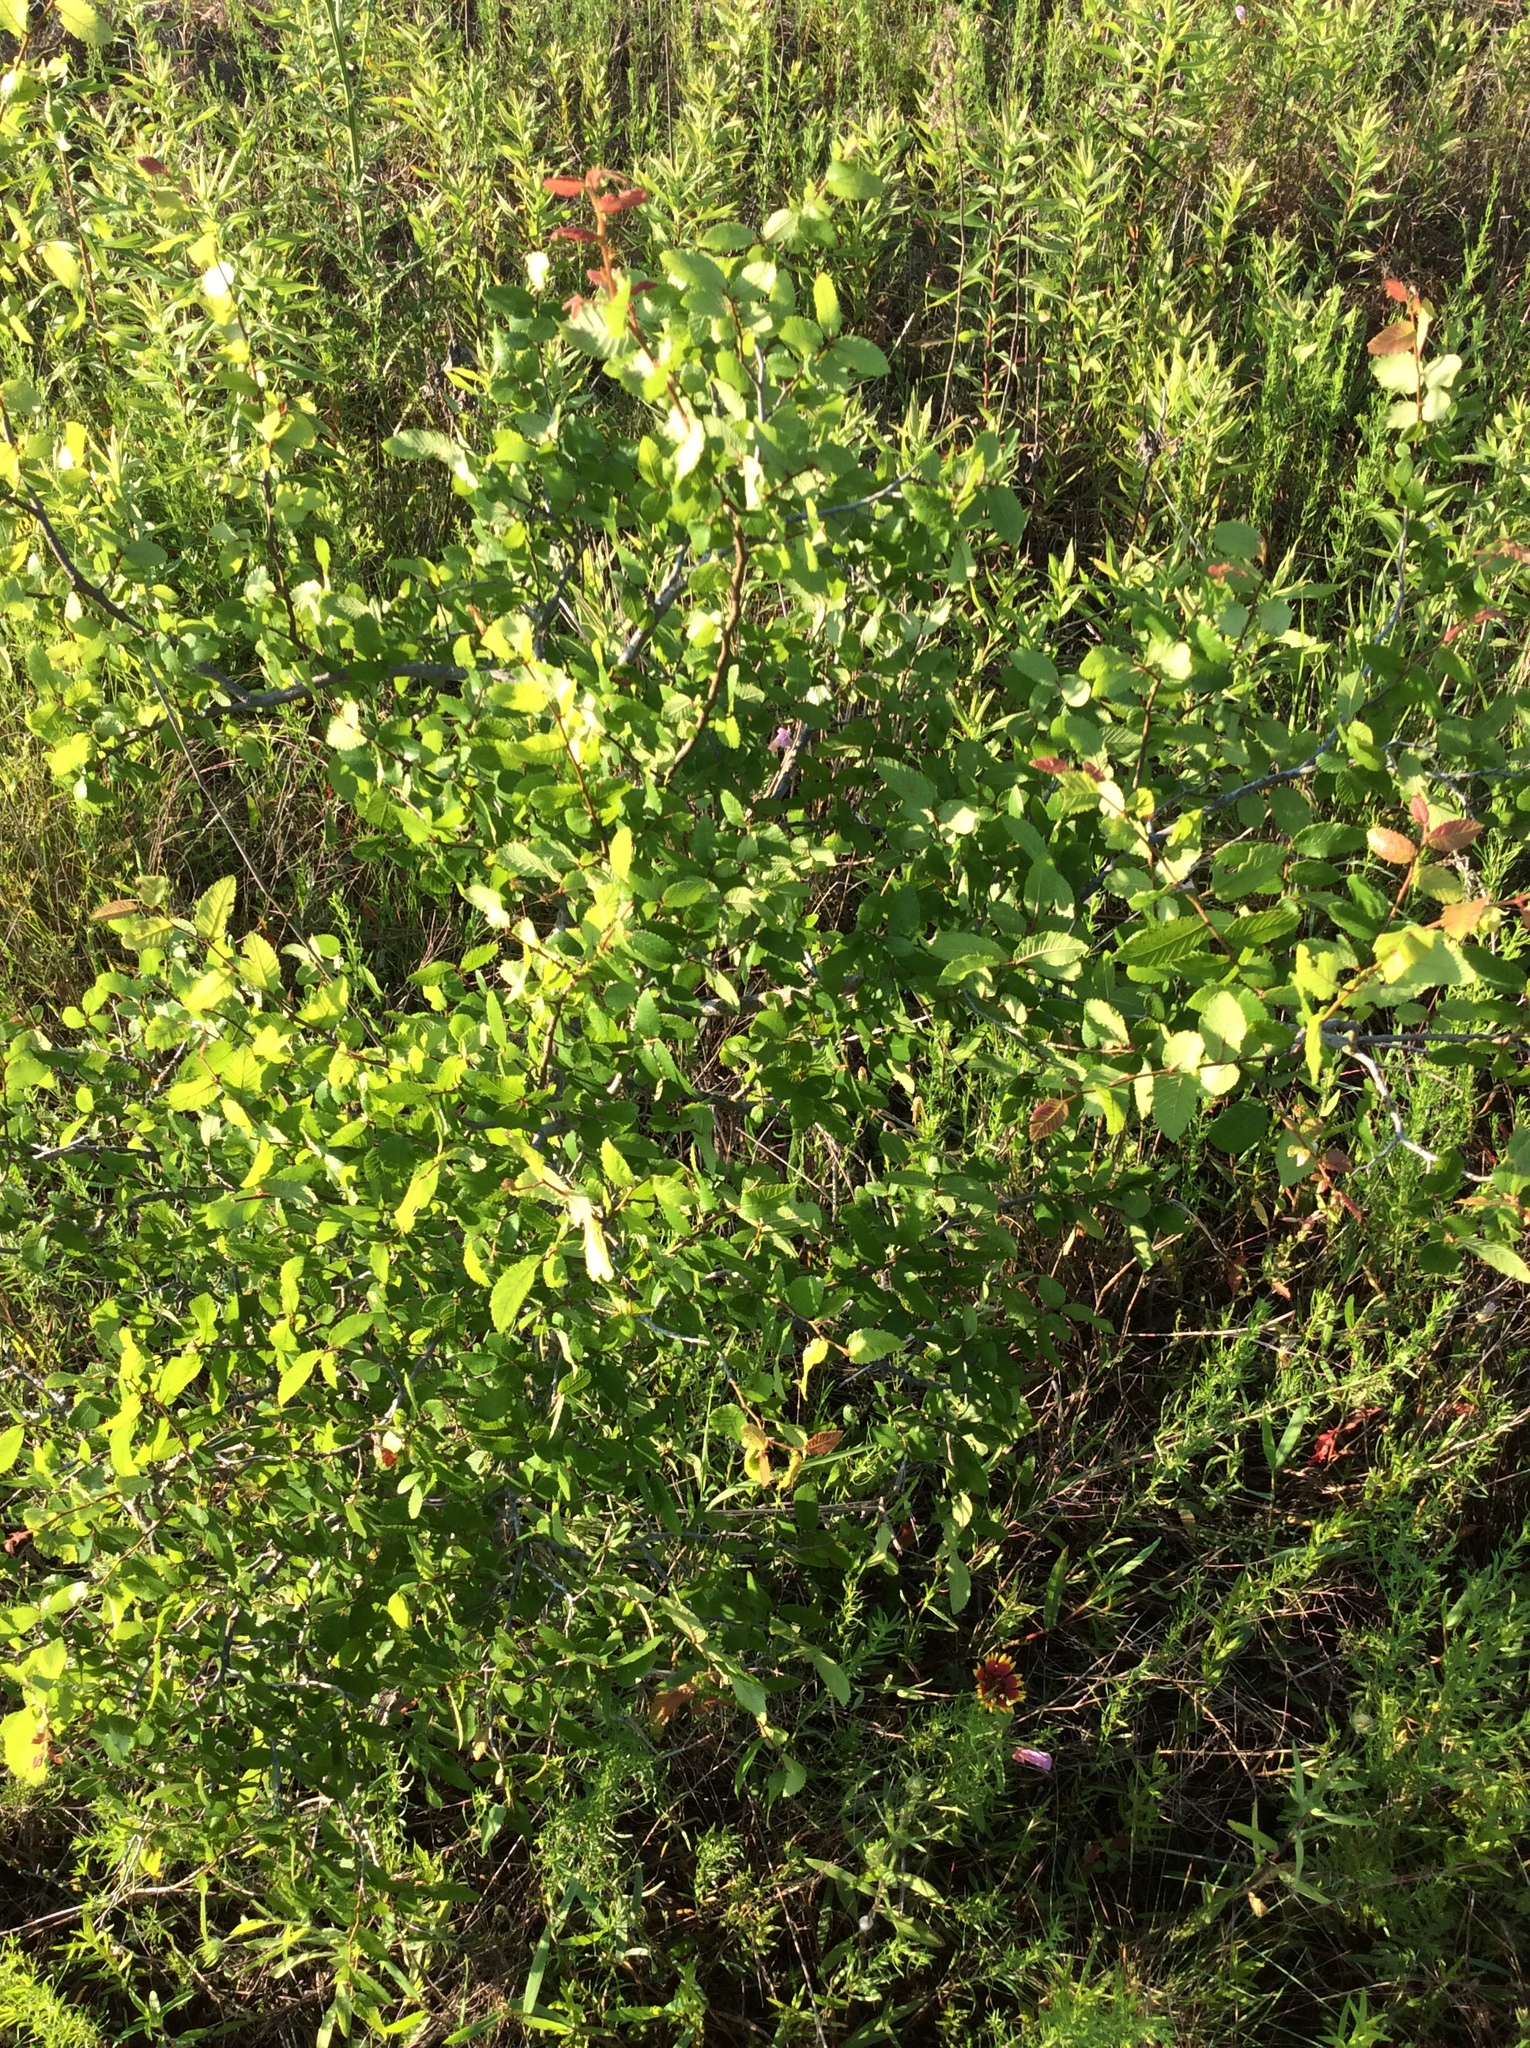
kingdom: Plantae
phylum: Tracheophyta
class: Magnoliopsida
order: Rosales
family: Ulmaceae
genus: Ulmus
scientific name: Ulmus crassifolia
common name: Basket elm
